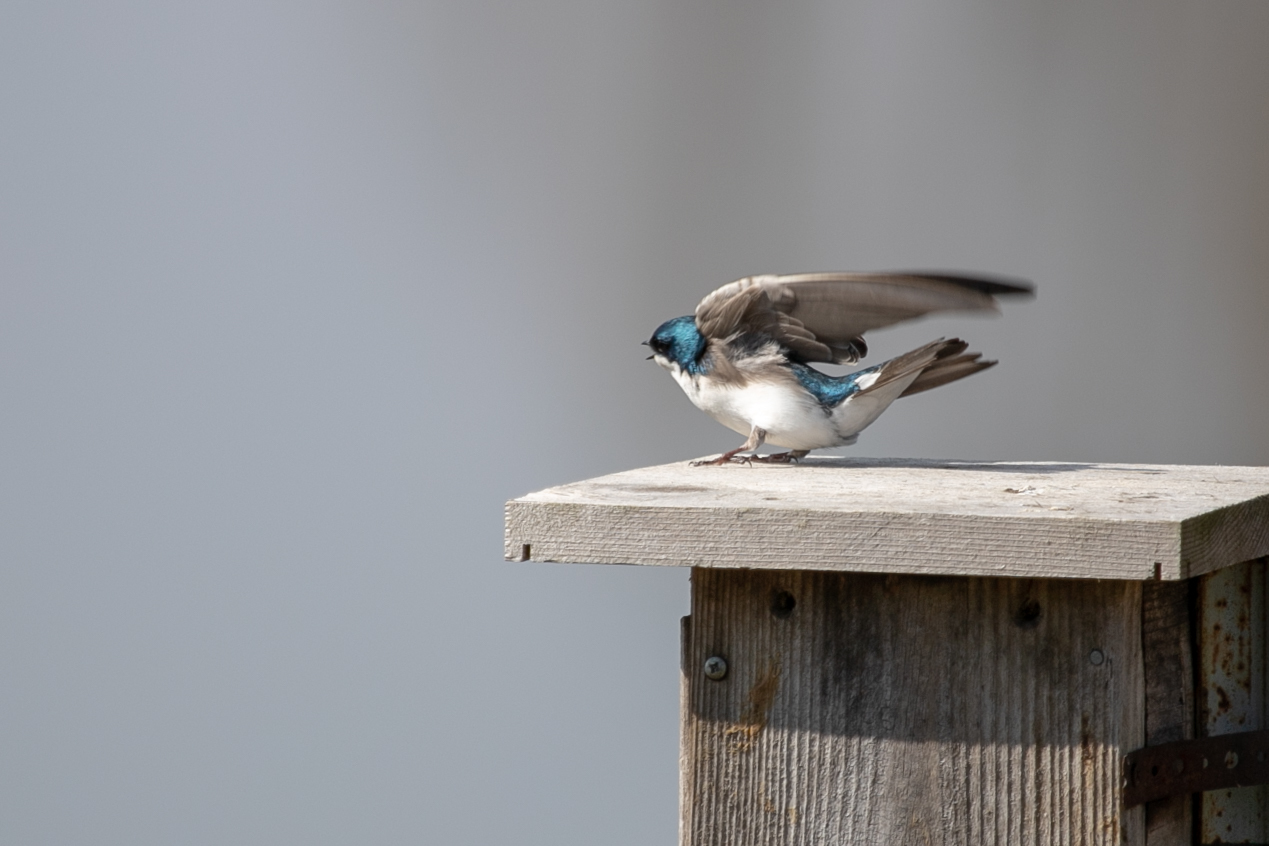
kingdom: Animalia
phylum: Chordata
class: Aves
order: Passeriformes
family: Hirundinidae
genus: Tachycineta
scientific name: Tachycineta bicolor
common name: Tree swallow
